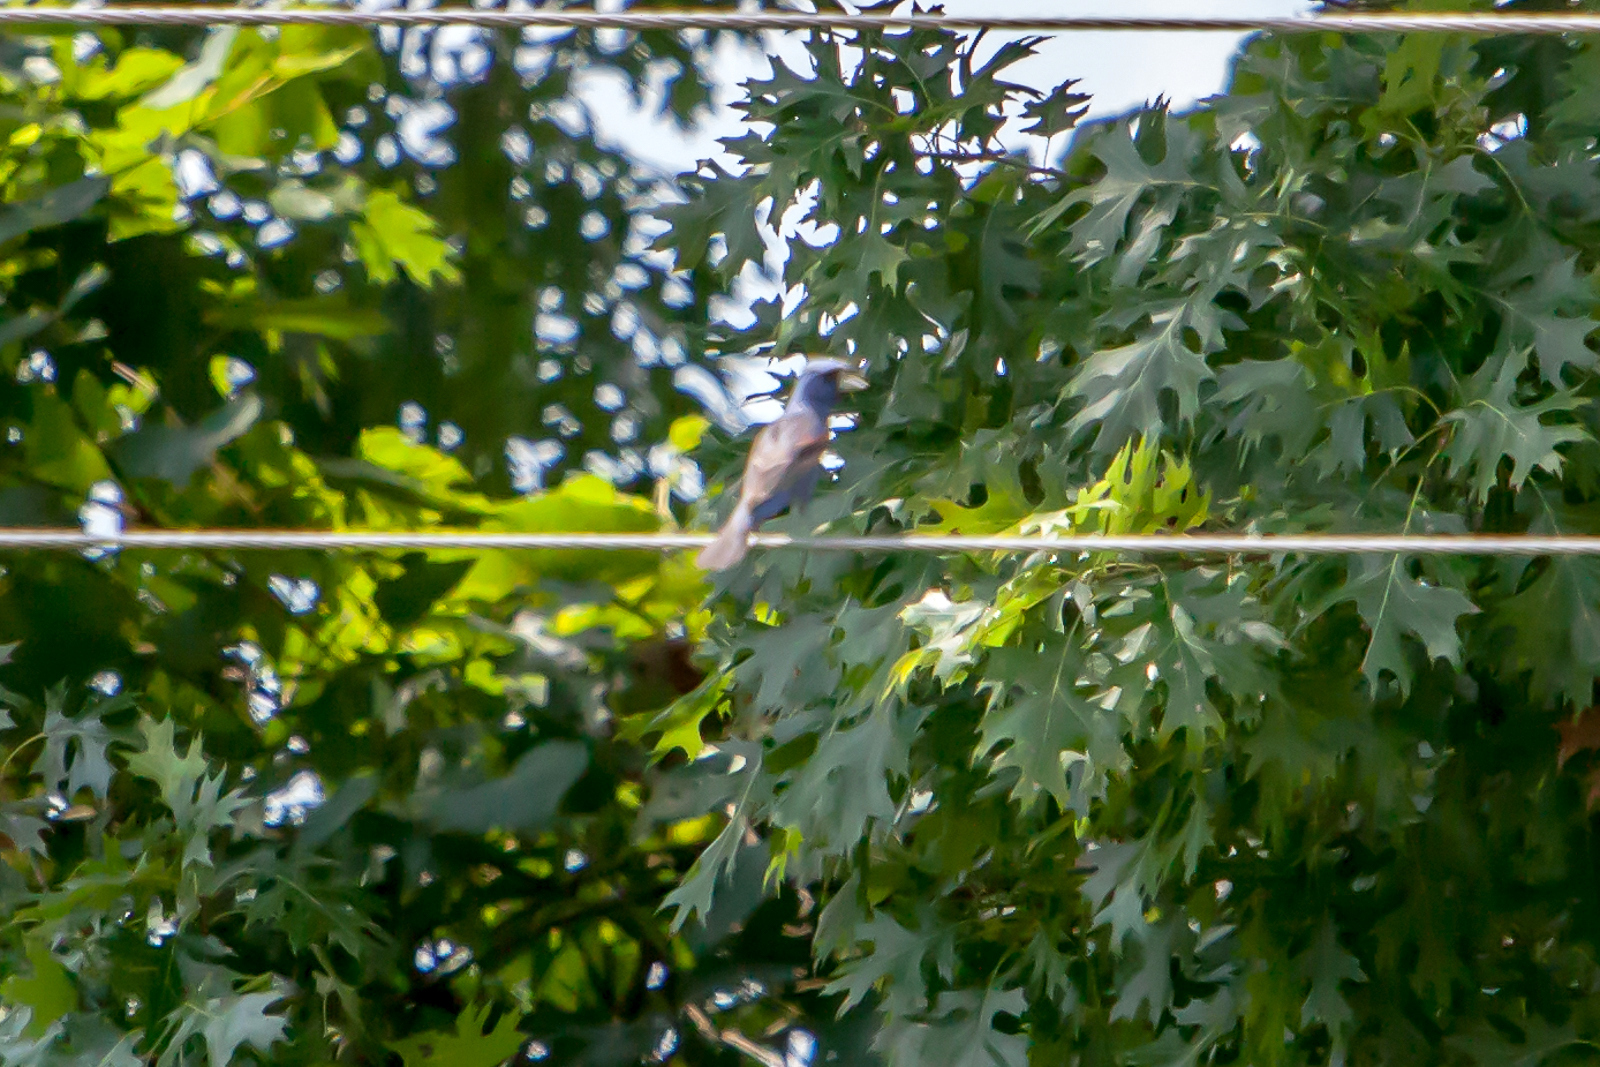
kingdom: Animalia
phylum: Chordata
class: Aves
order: Passeriformes
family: Cardinalidae
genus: Passerina
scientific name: Passerina caerulea
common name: Blue grosbeak
